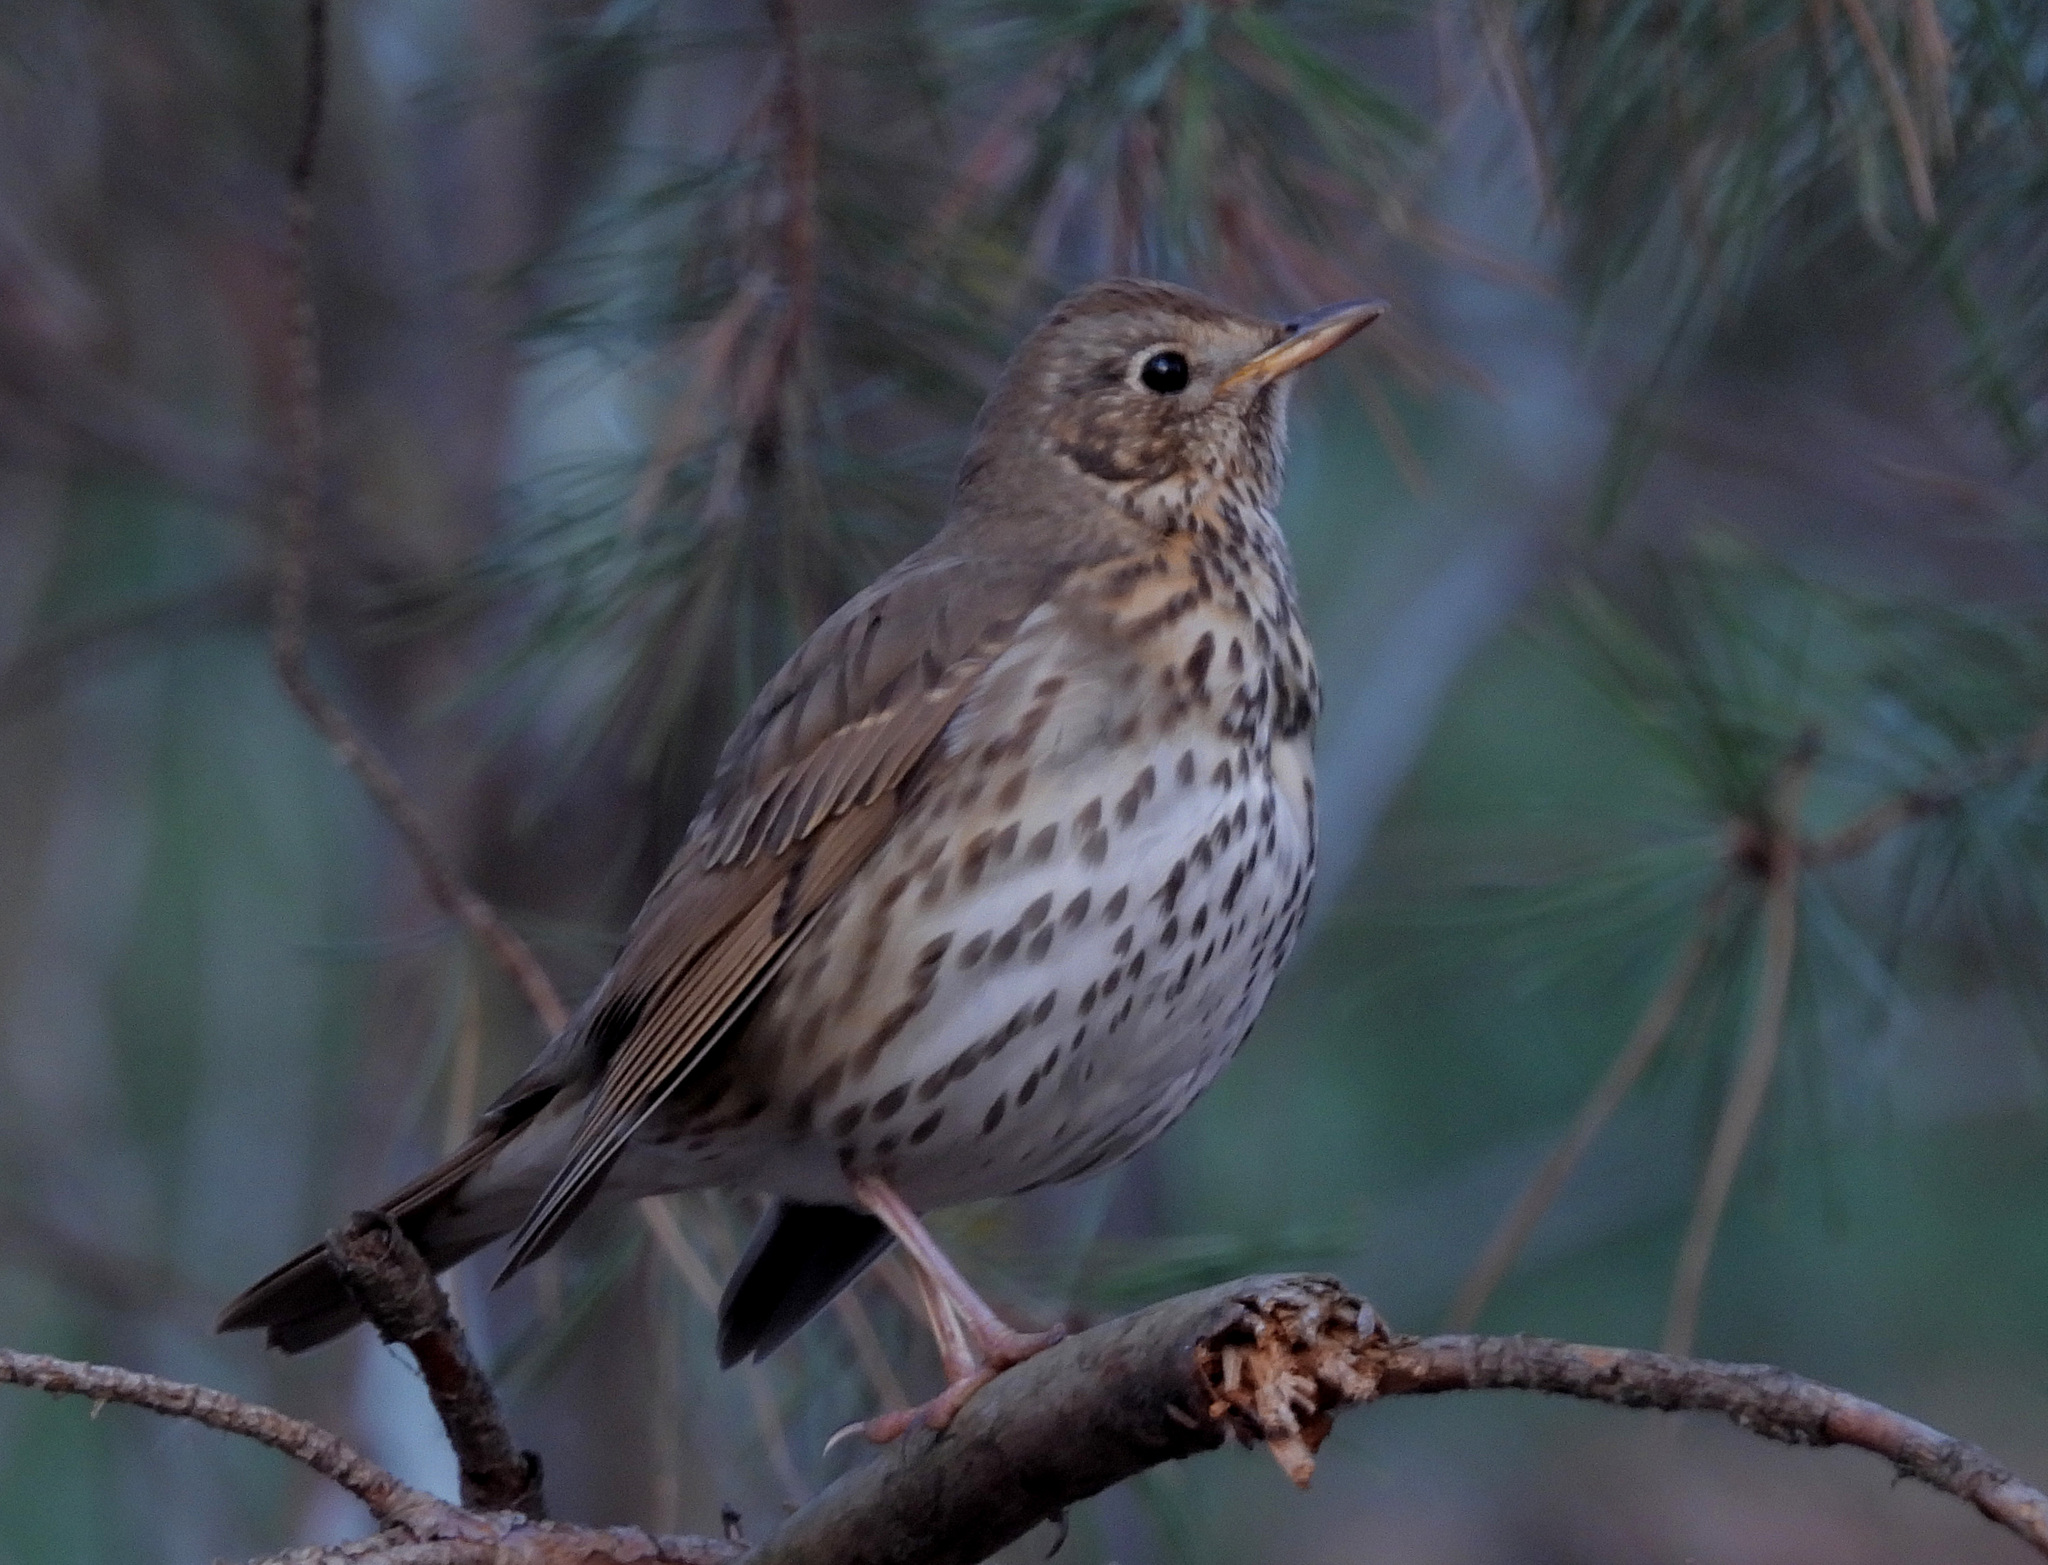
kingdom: Animalia
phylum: Chordata
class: Aves
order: Passeriformes
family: Turdidae
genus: Turdus
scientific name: Turdus philomelos
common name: Song thrush
